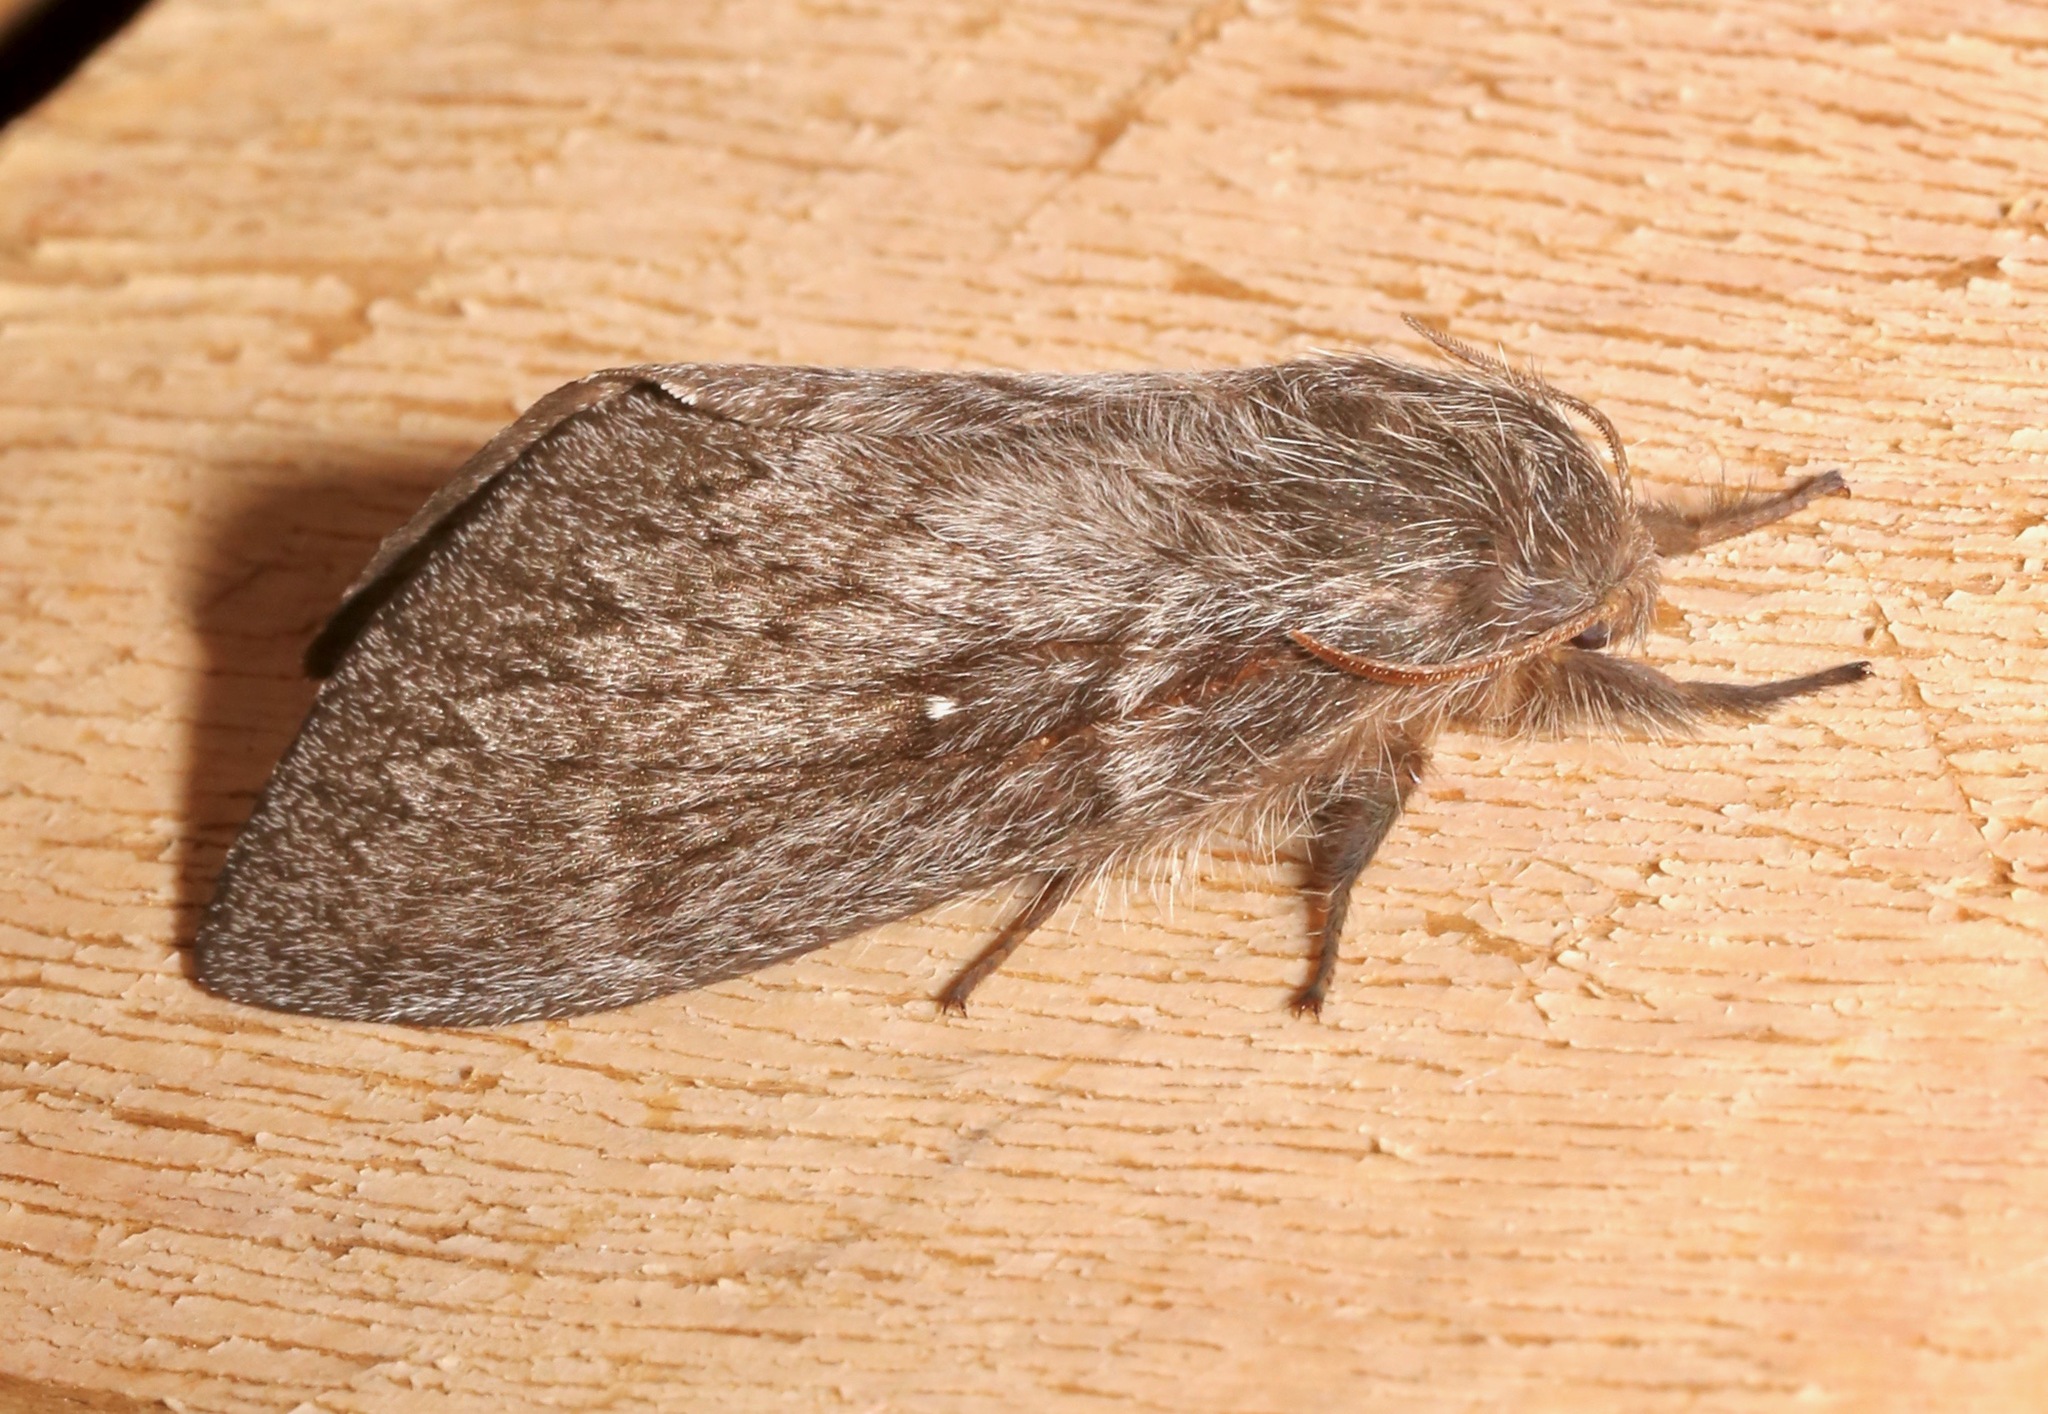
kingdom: Animalia
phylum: Arthropoda
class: Insecta
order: Lepidoptera
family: Lasiocampidae
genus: Gloveria
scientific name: Gloveria arizonensis
